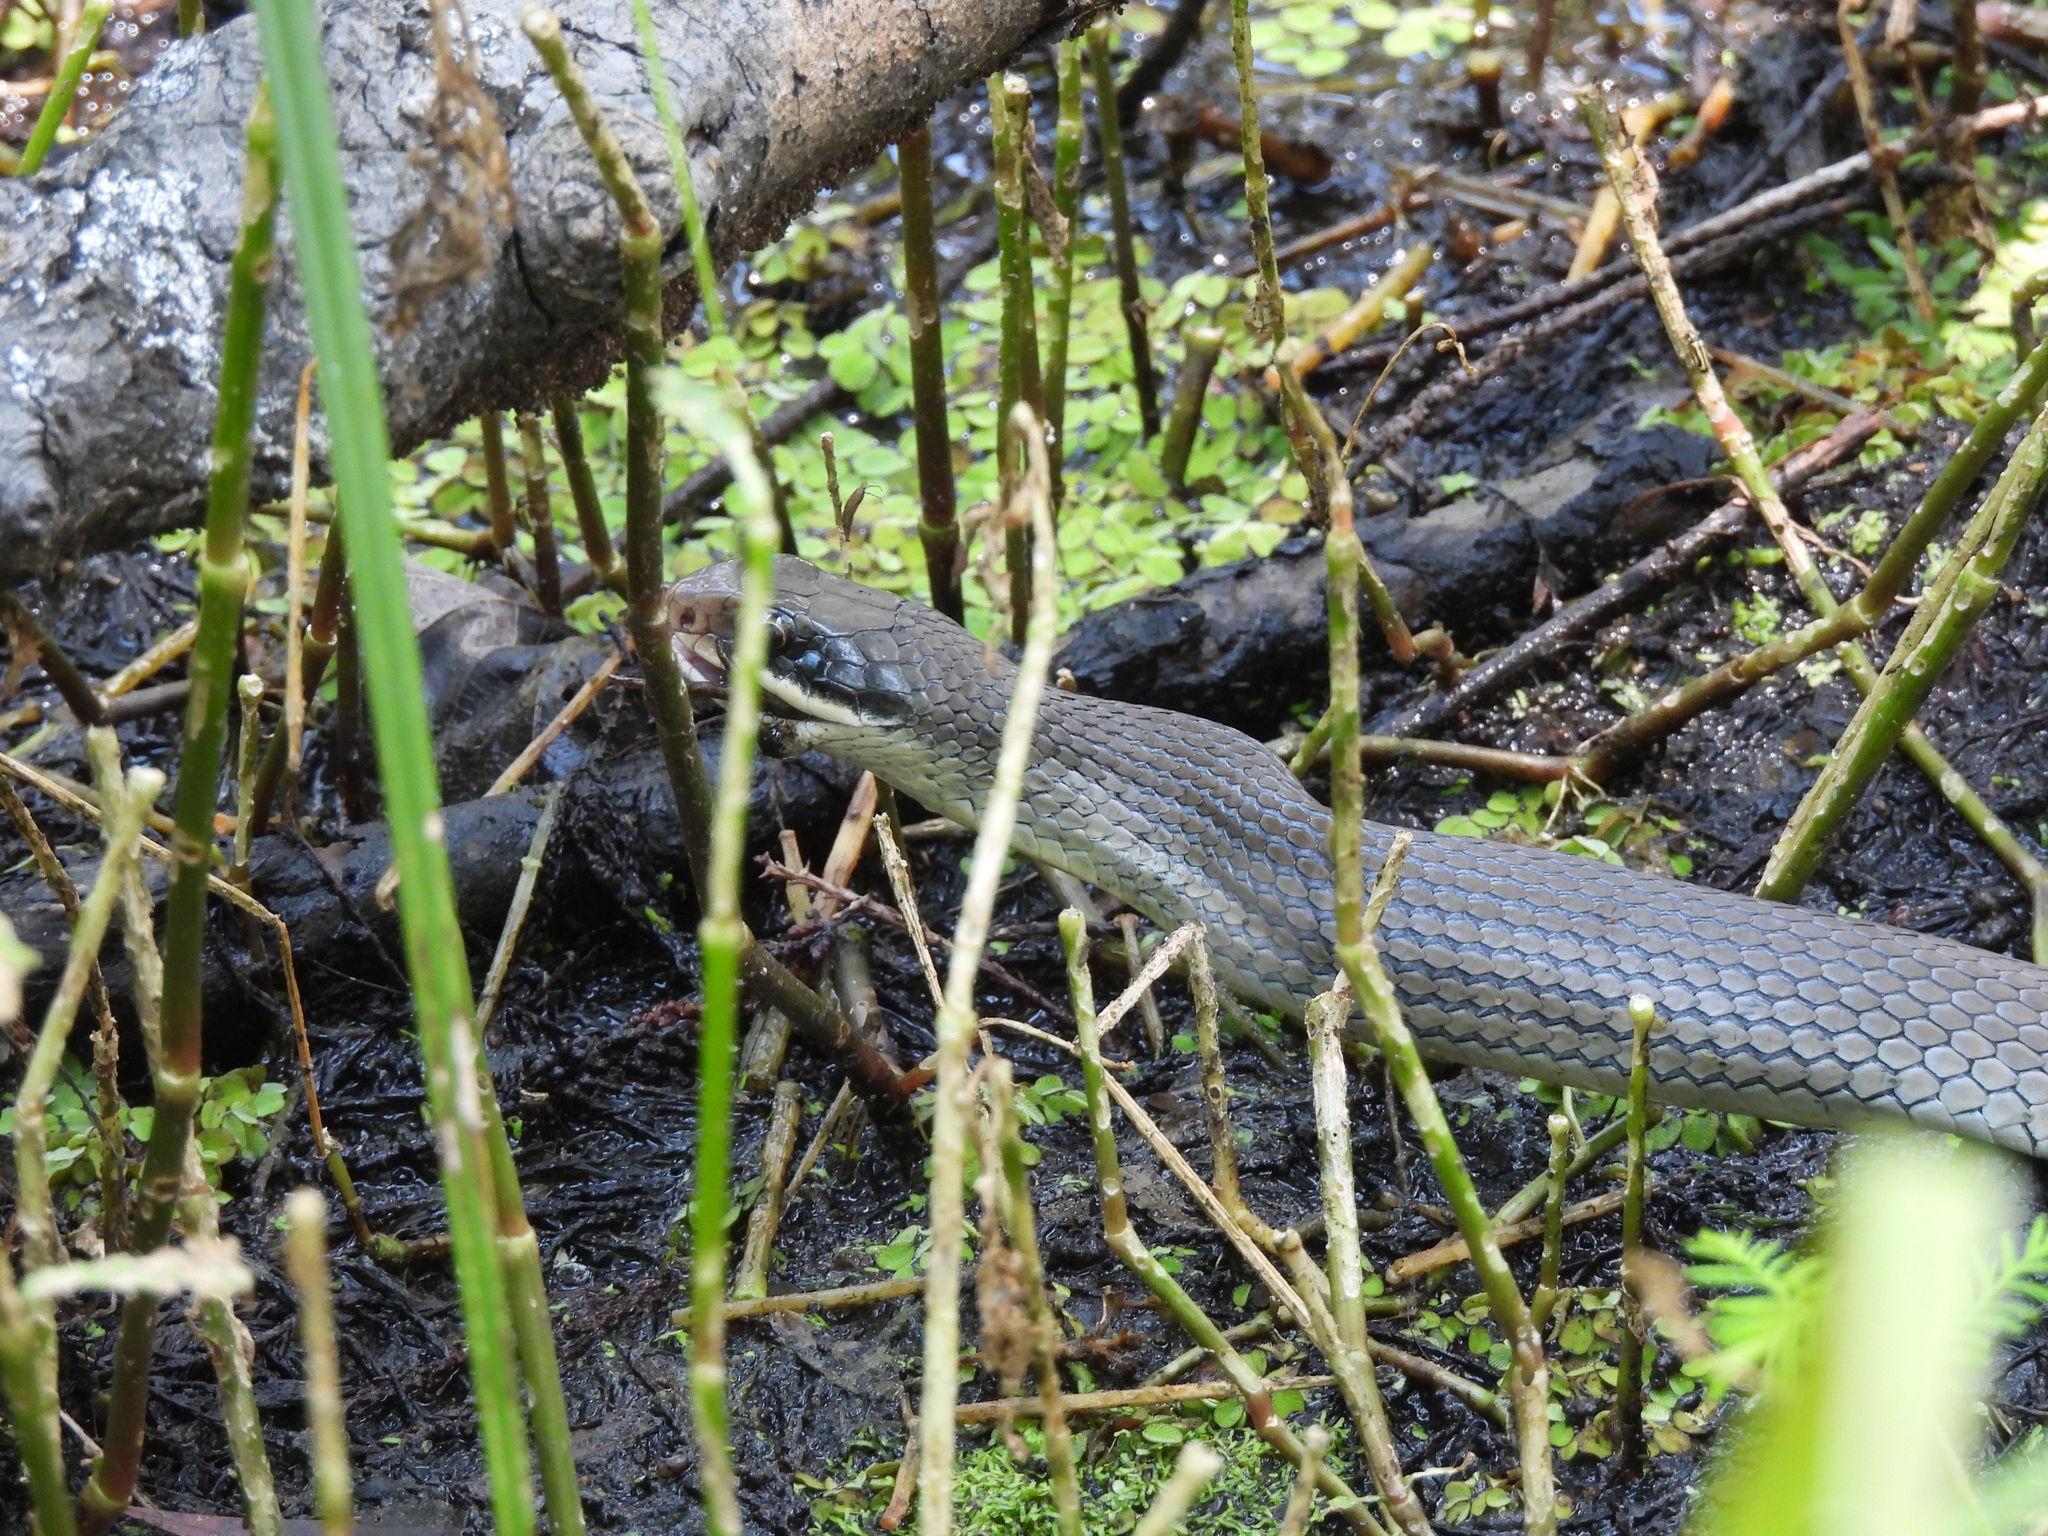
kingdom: Animalia
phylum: Chordata
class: Squamata
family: Colubridae
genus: Coluber
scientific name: Coluber constrictor
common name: Eastern racer
